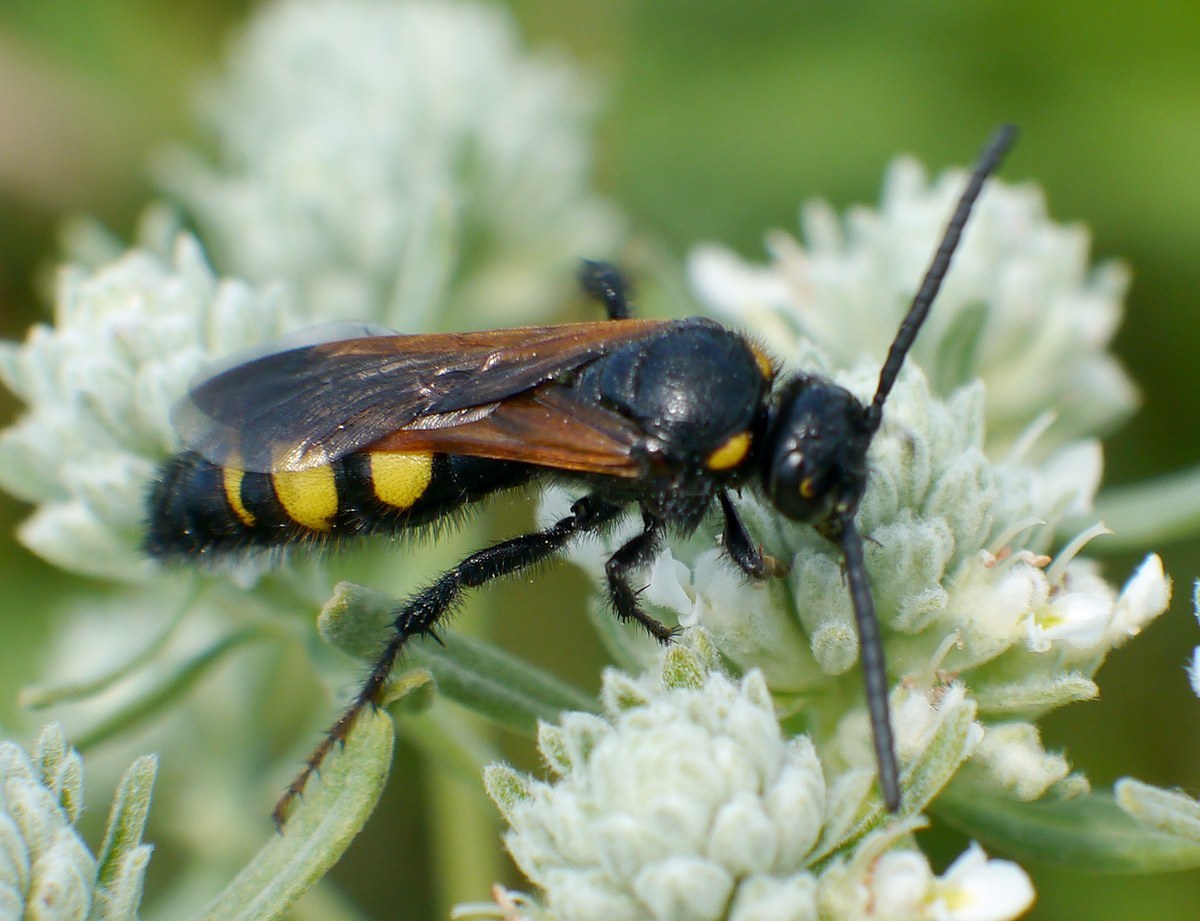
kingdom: Animalia
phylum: Arthropoda
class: Insecta
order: Hymenoptera
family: Scoliidae
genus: Scolia
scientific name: Scolia fuciformis
